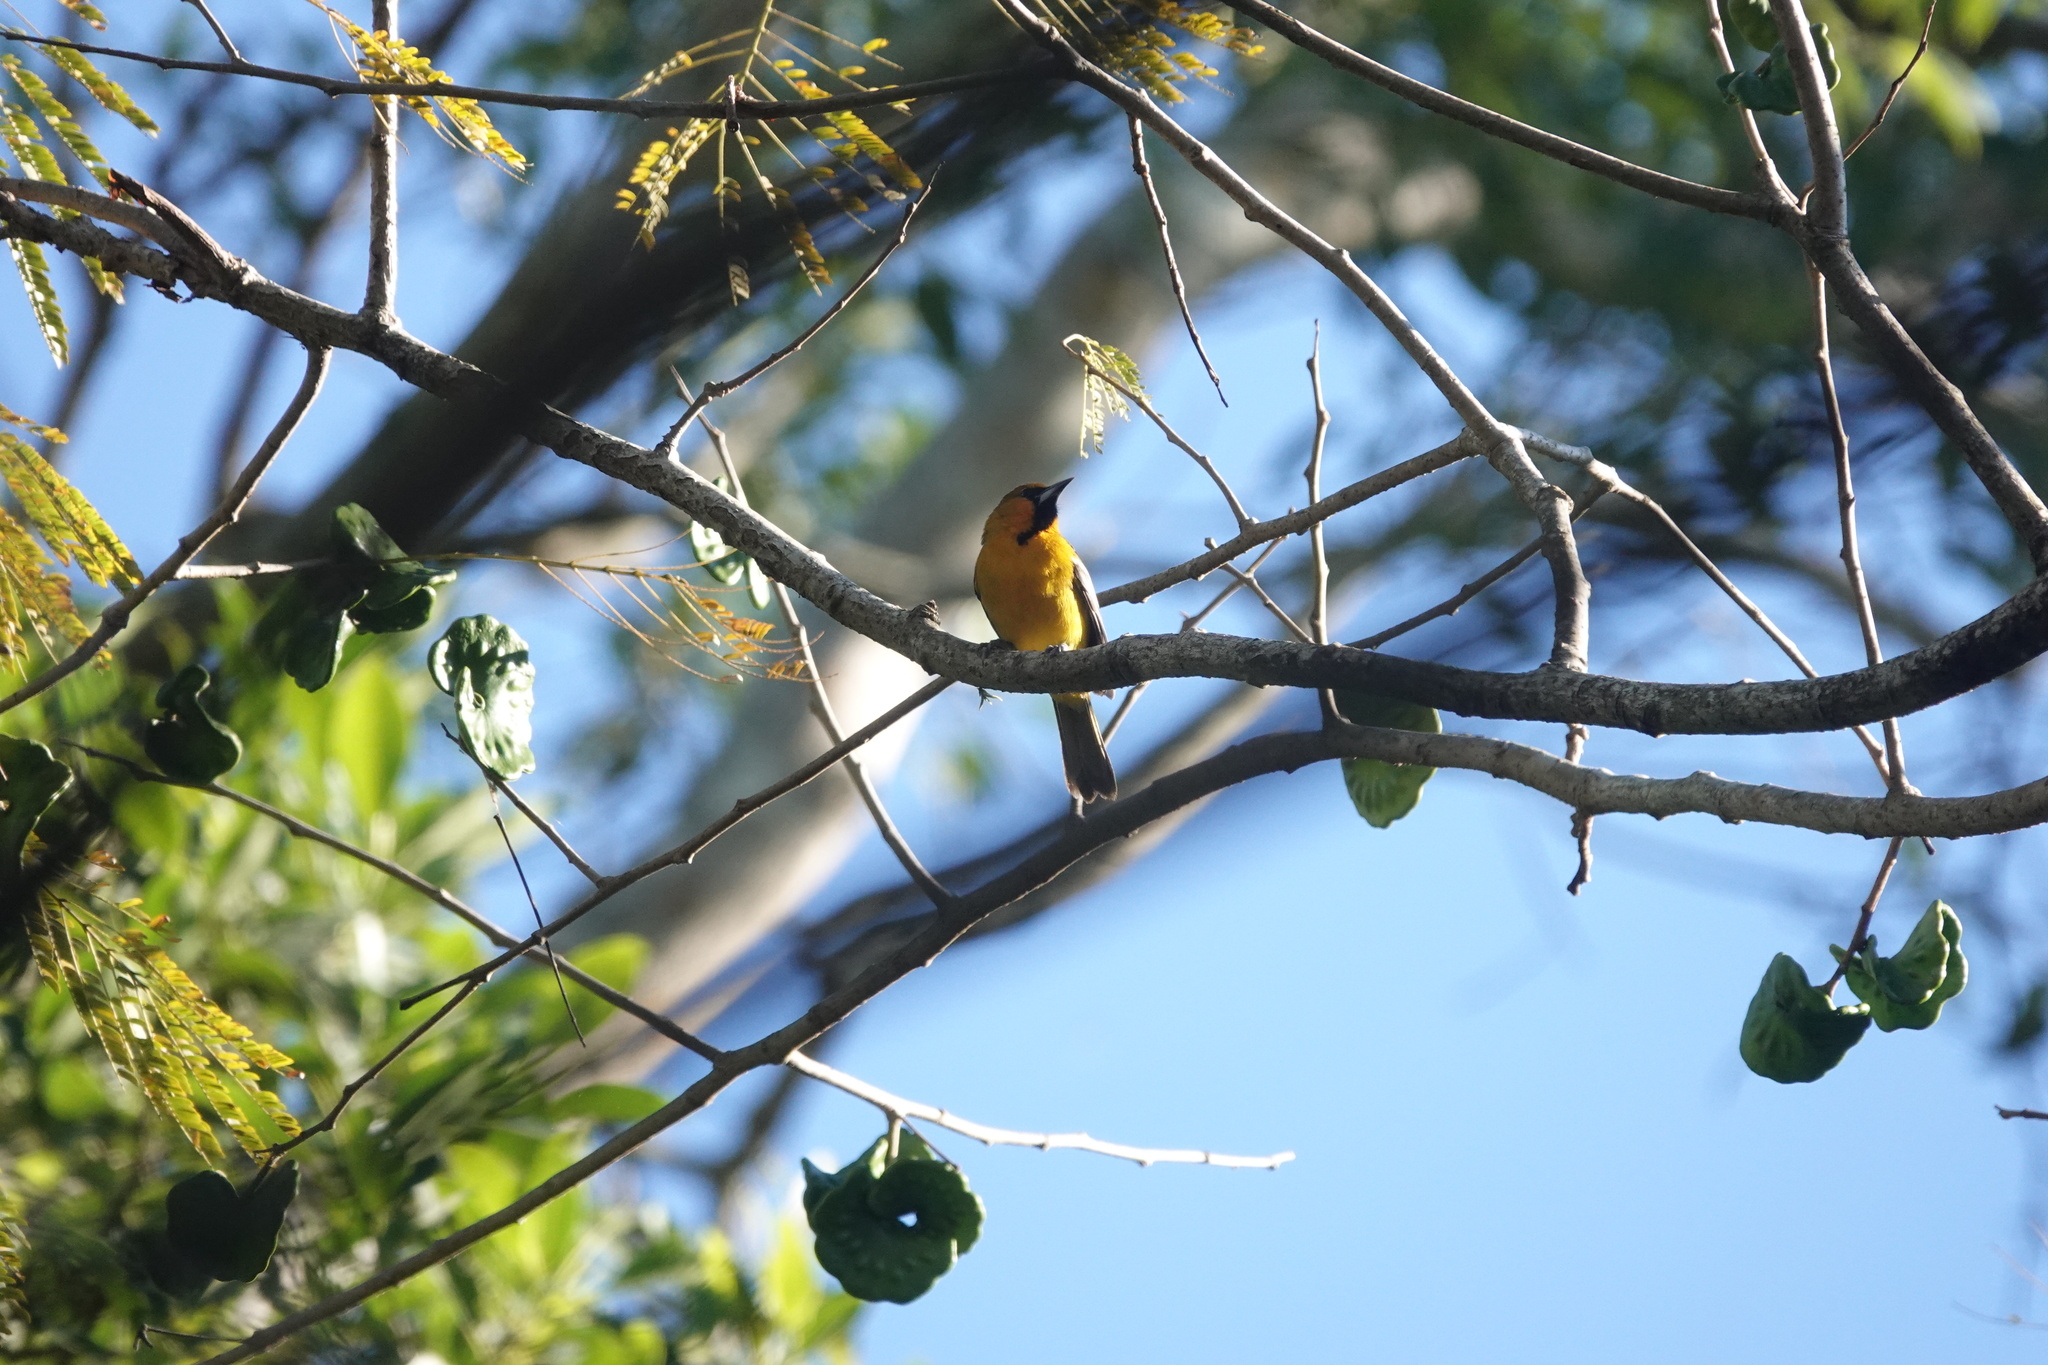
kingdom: Animalia
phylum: Chordata
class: Aves
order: Passeriformes
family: Icteridae
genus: Icterus
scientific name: Icterus pustulatus
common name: Streak-backed oriole
